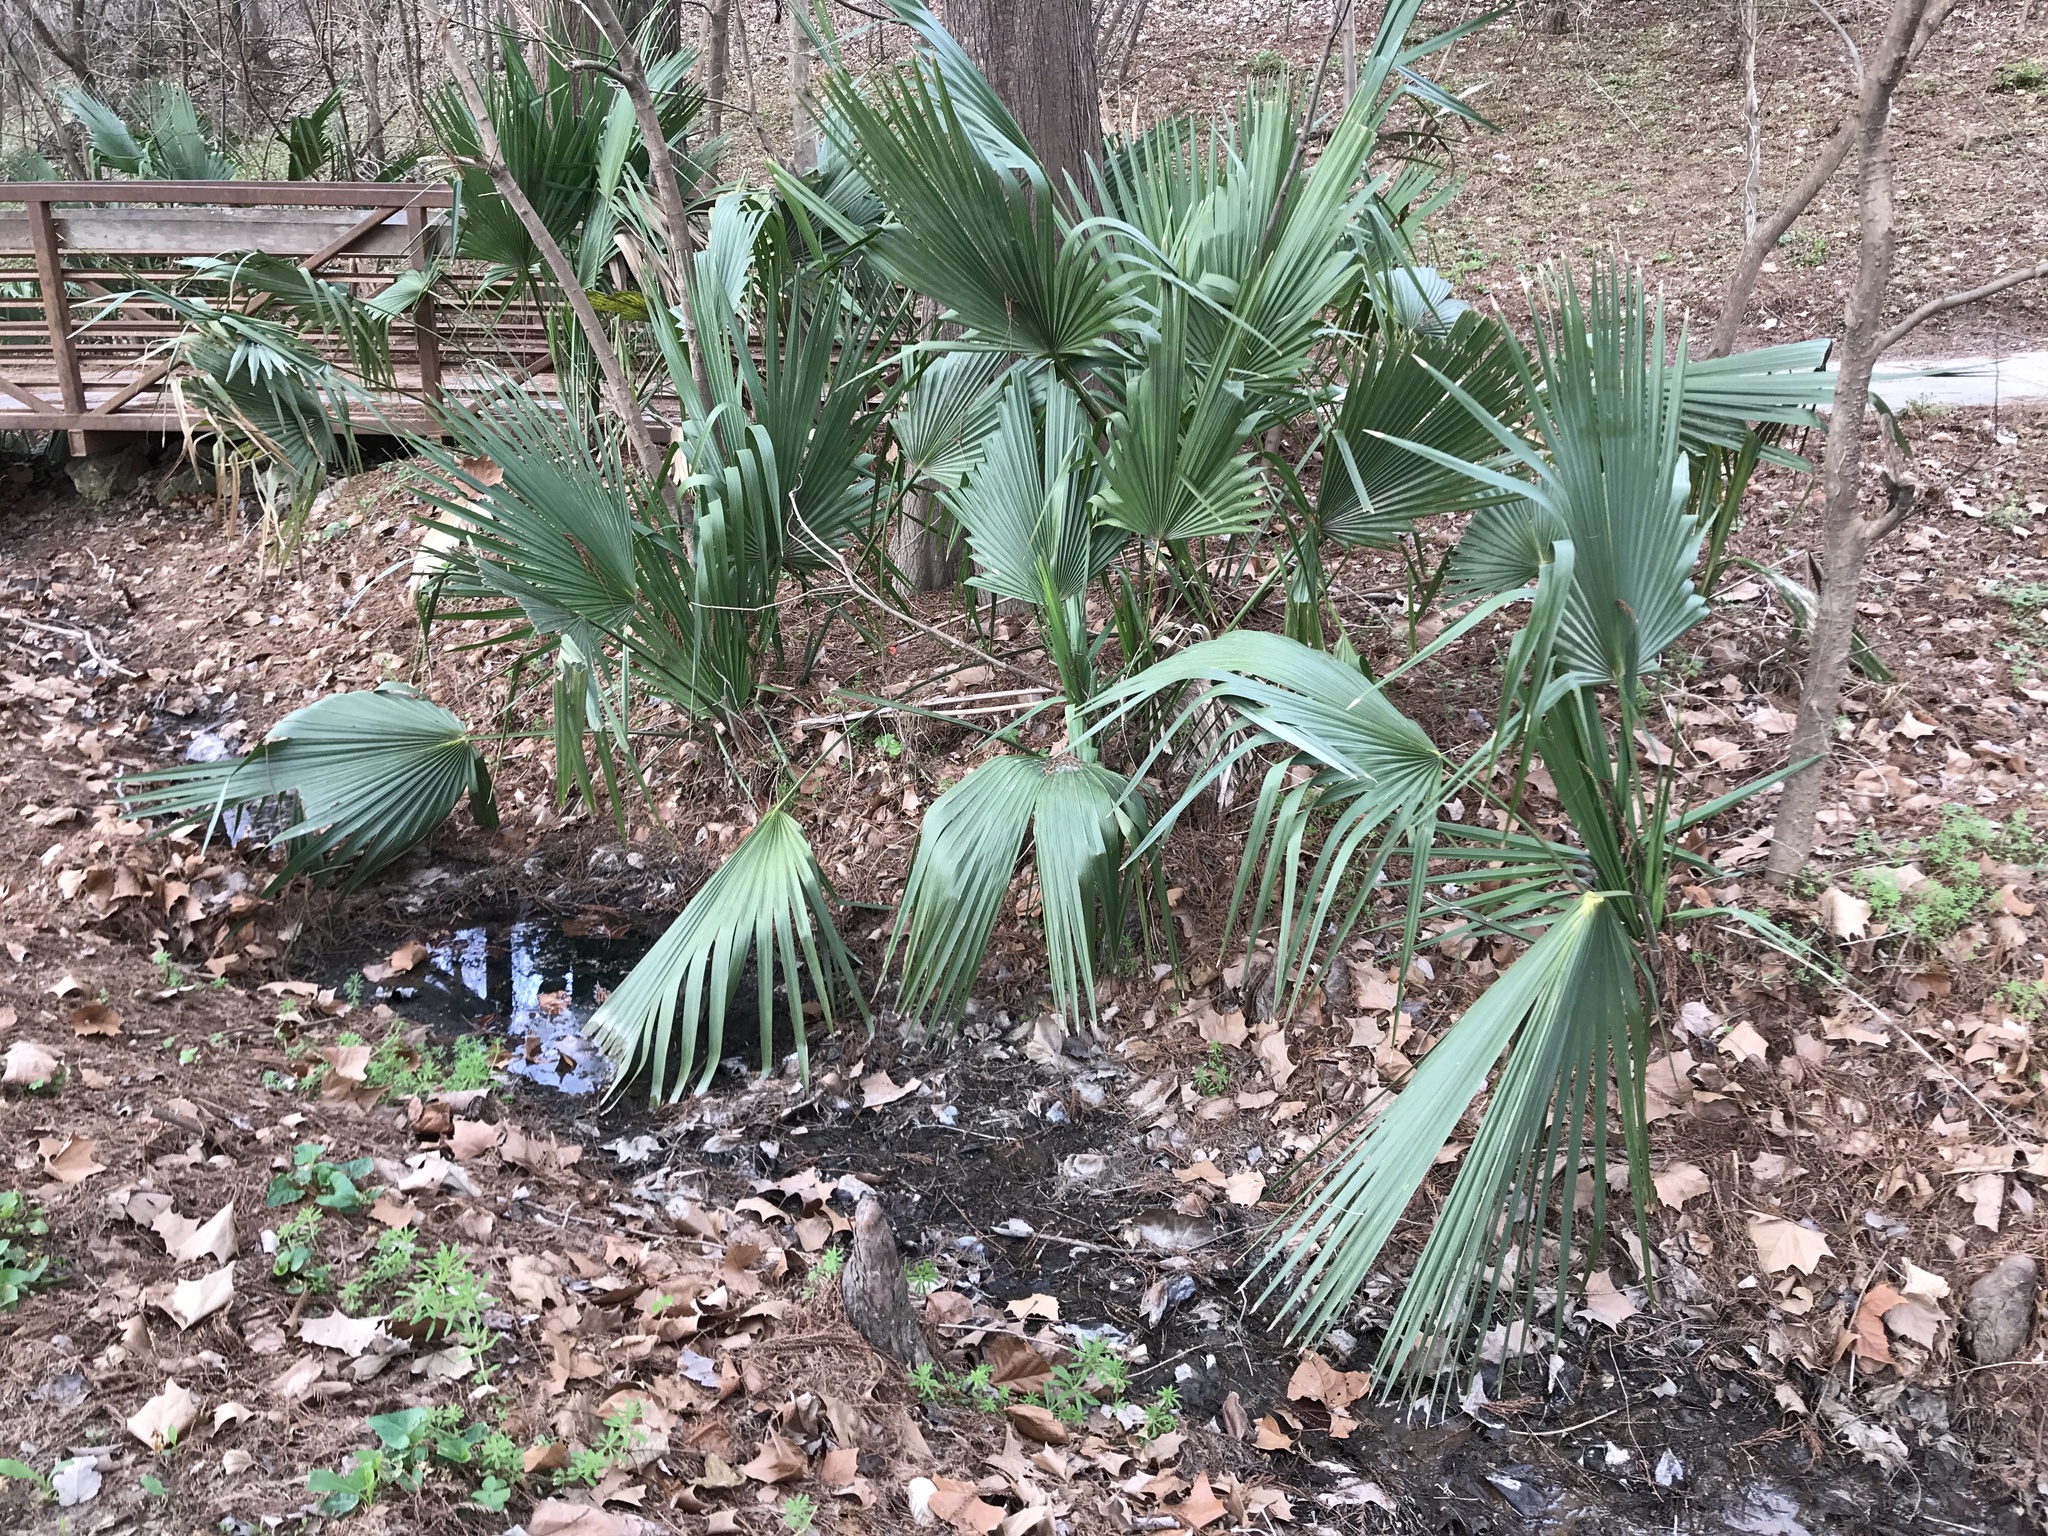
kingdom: Plantae
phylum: Tracheophyta
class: Liliopsida
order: Arecales
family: Arecaceae
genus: Sabal
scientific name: Sabal minor
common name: Dwarf palmetto
